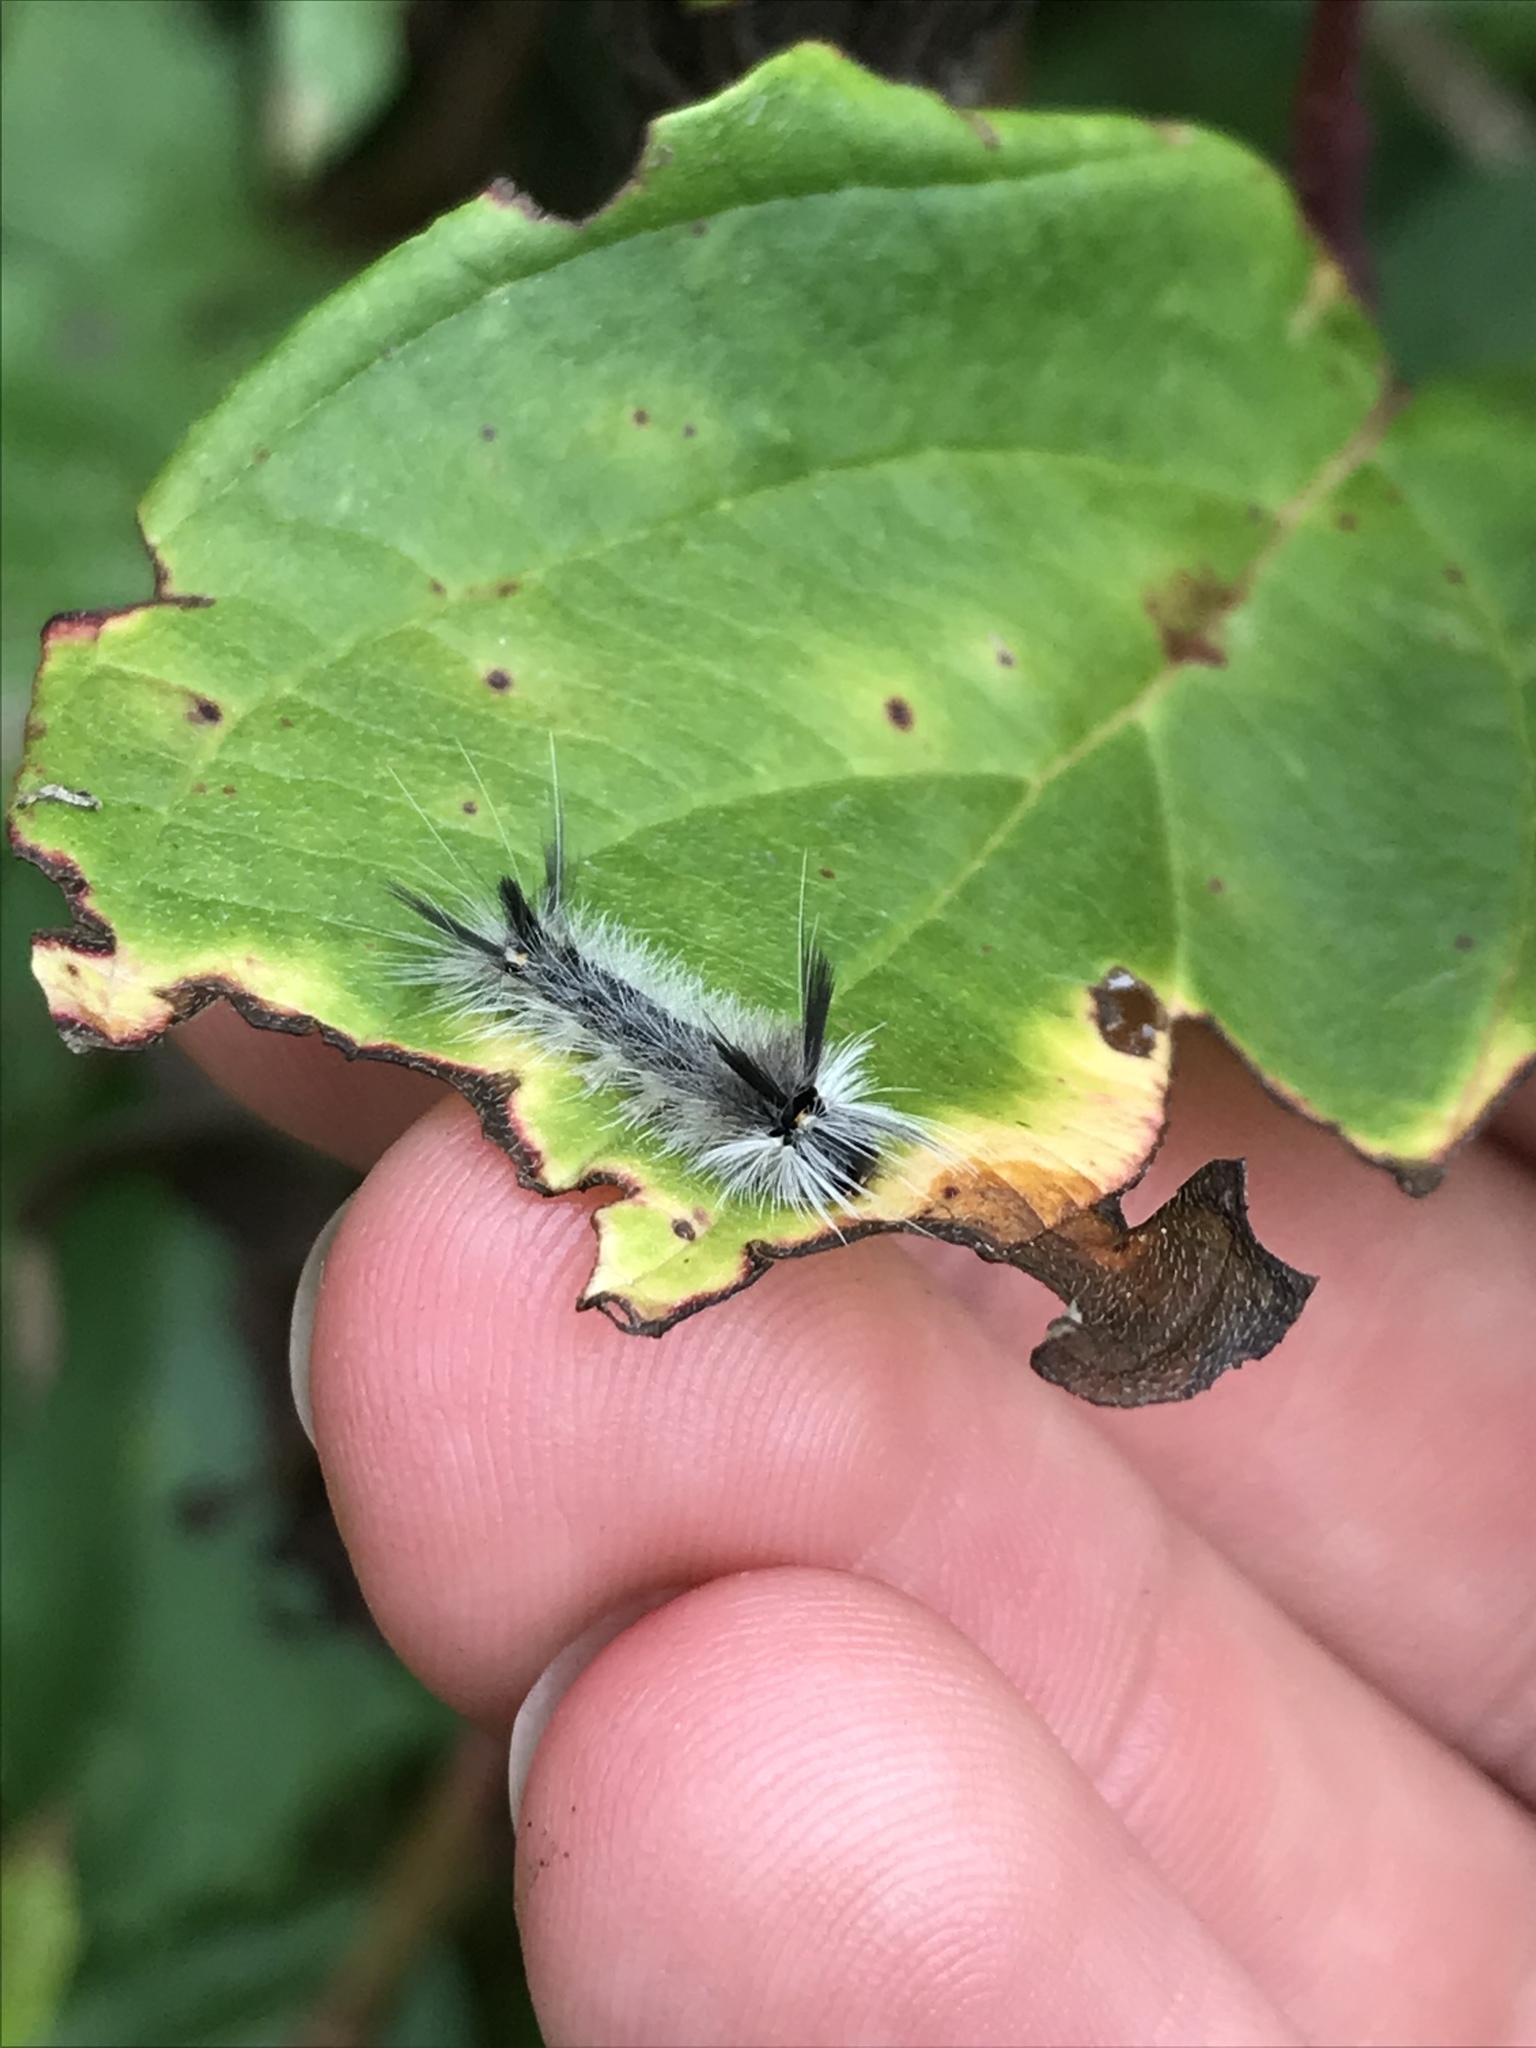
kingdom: Animalia
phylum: Arthropoda
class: Insecta
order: Lepidoptera
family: Erebidae
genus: Halysidota
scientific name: Halysidota tessellaris
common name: Banded tussock moth
